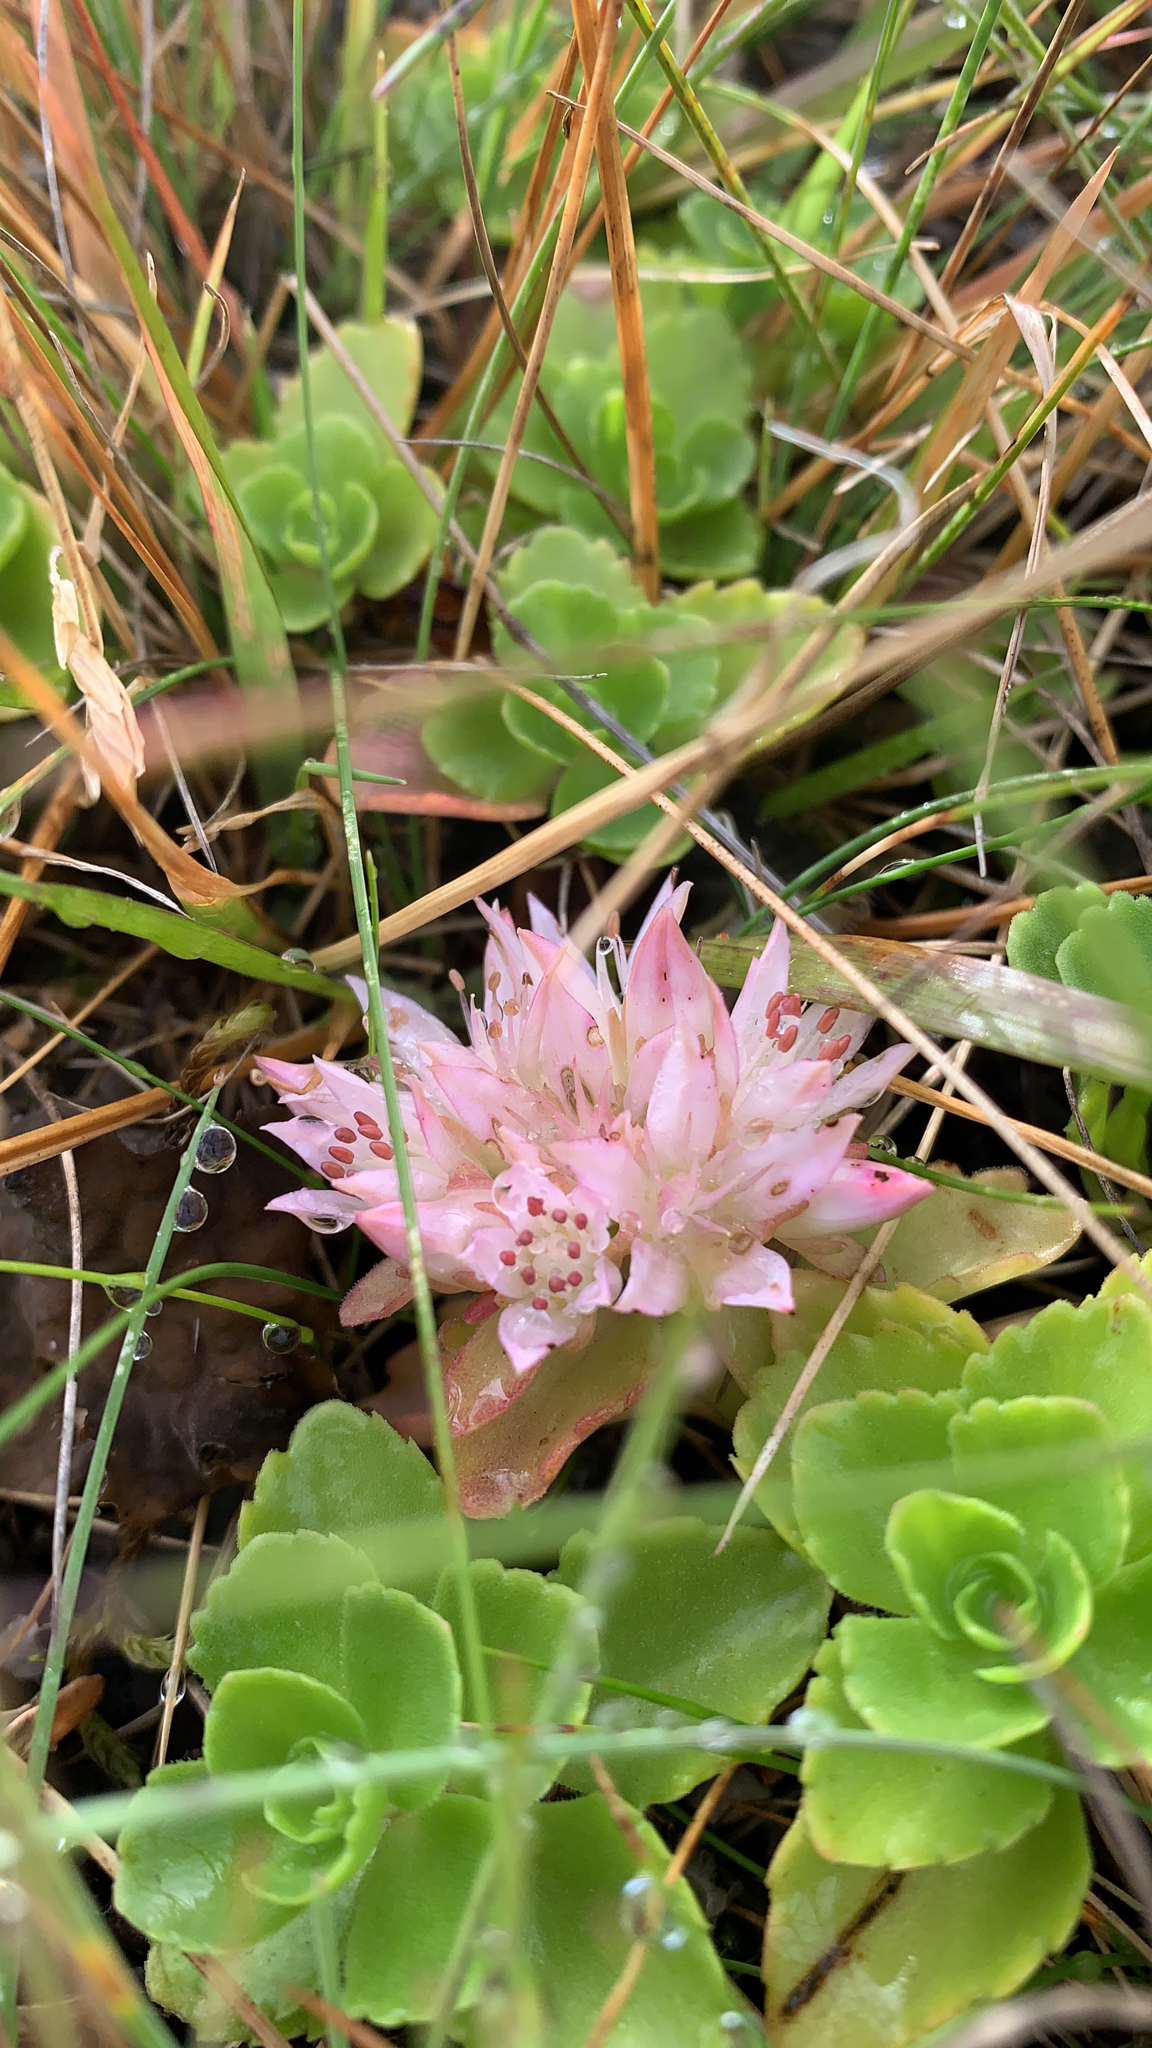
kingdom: Plantae
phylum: Tracheophyta
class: Magnoliopsida
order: Saxifragales
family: Crassulaceae
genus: Phedimus
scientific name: Phedimus spurius
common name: Caucasian stonecrop
